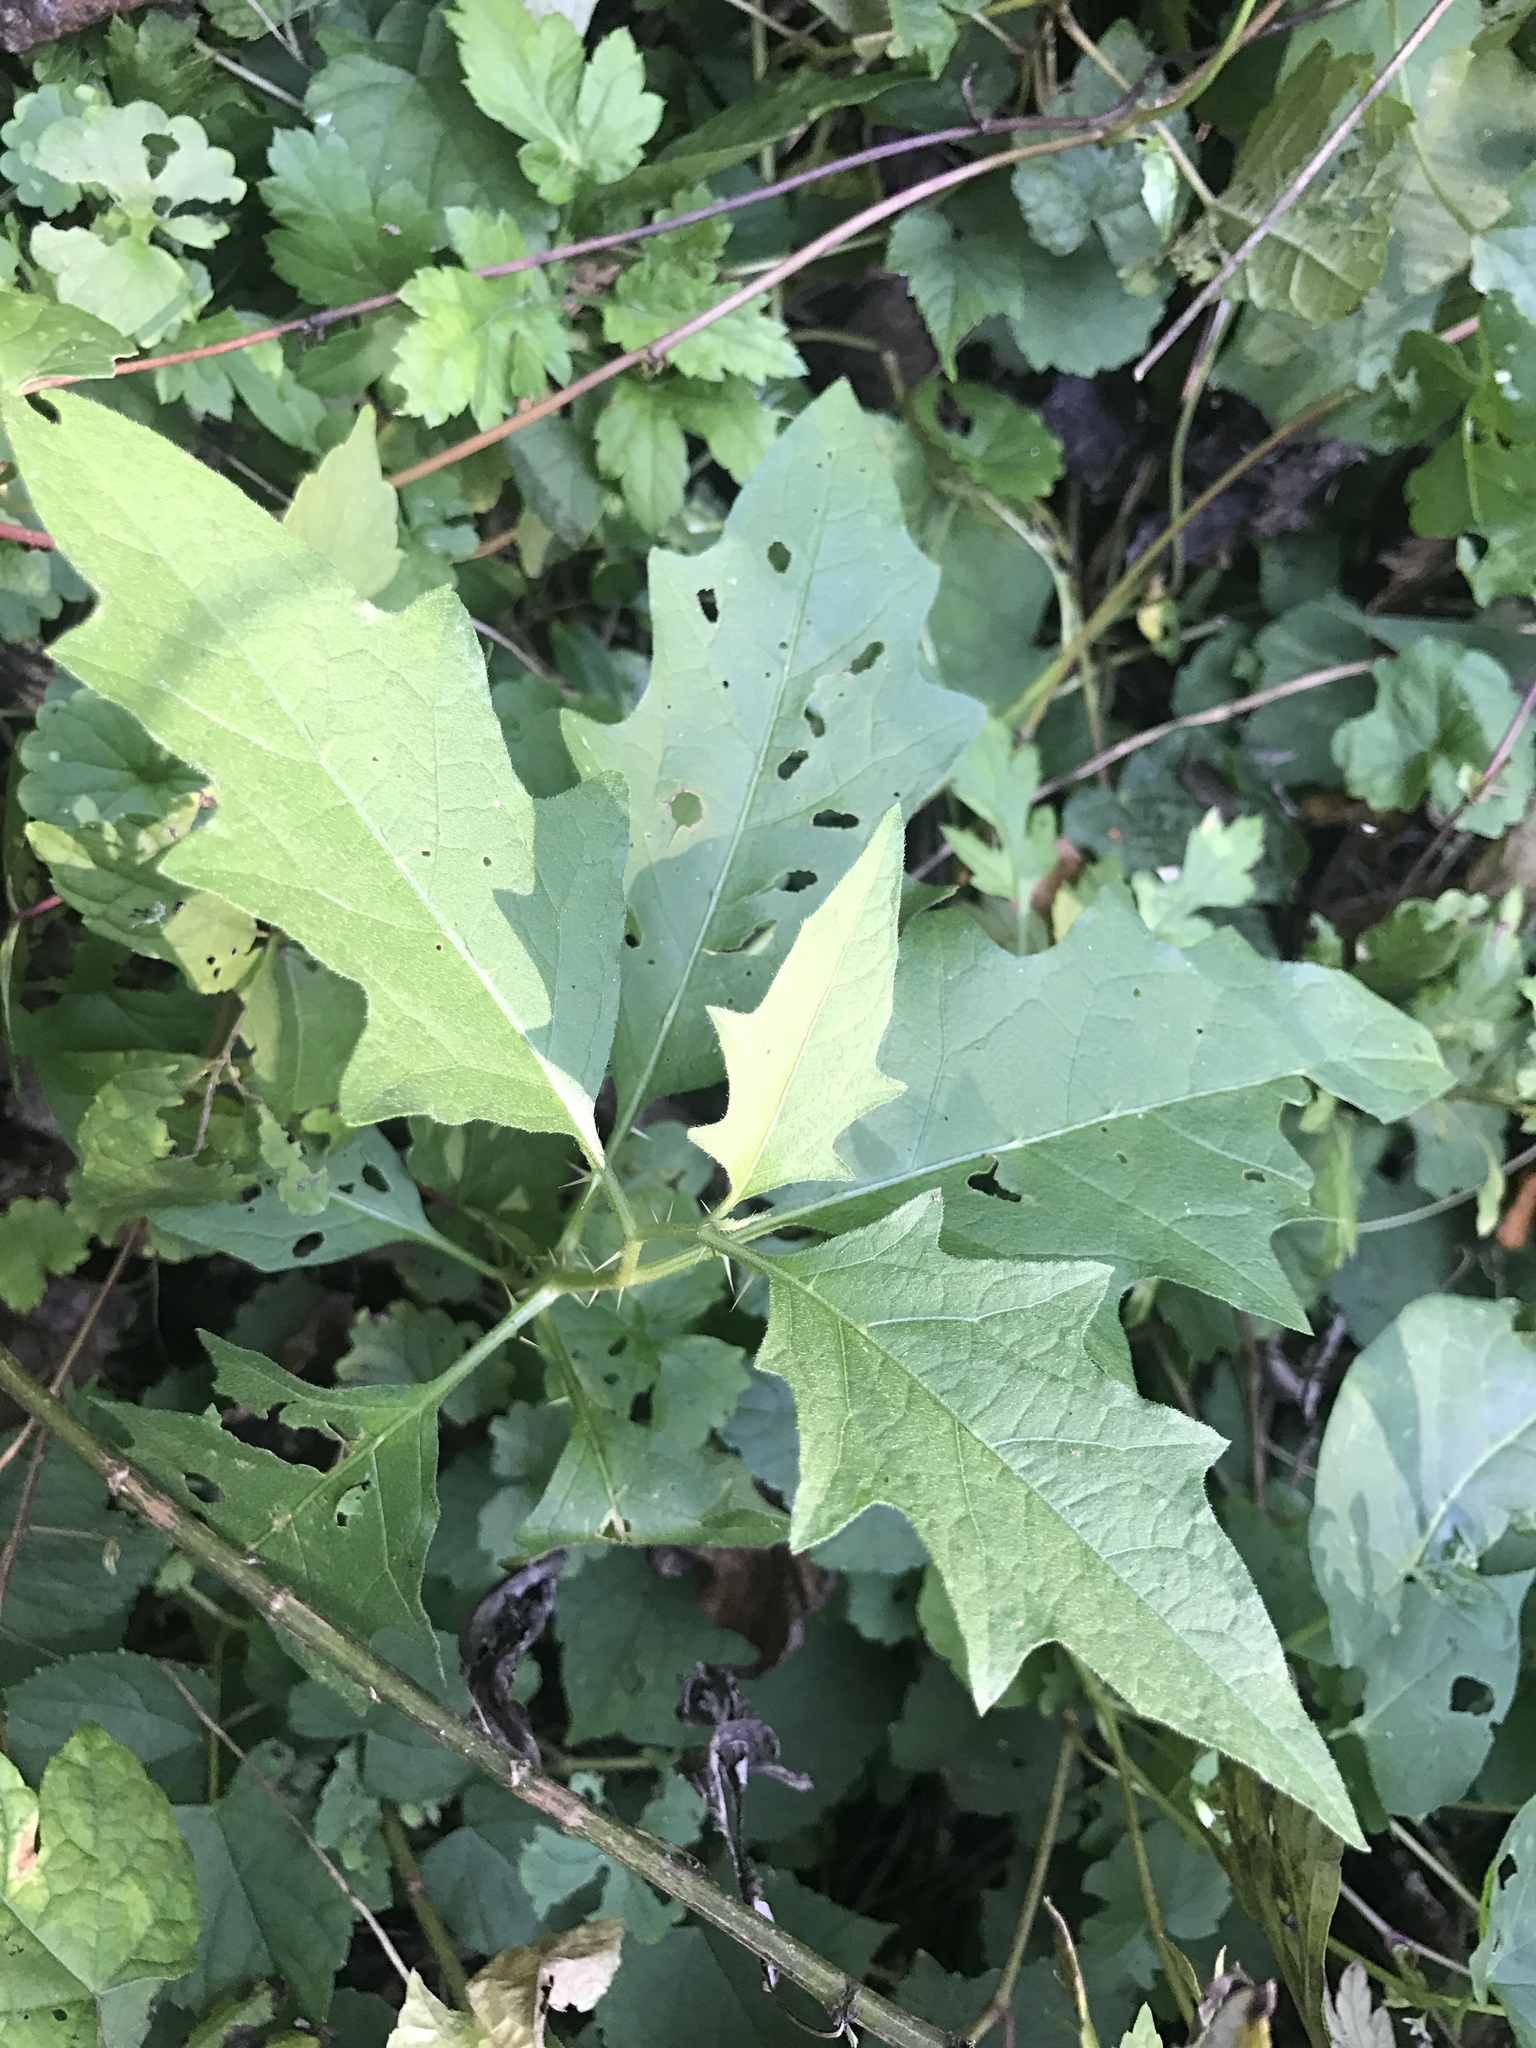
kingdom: Plantae
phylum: Tracheophyta
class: Magnoliopsida
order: Solanales
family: Solanaceae
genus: Solanum
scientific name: Solanum carolinense
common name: Horse-nettle
